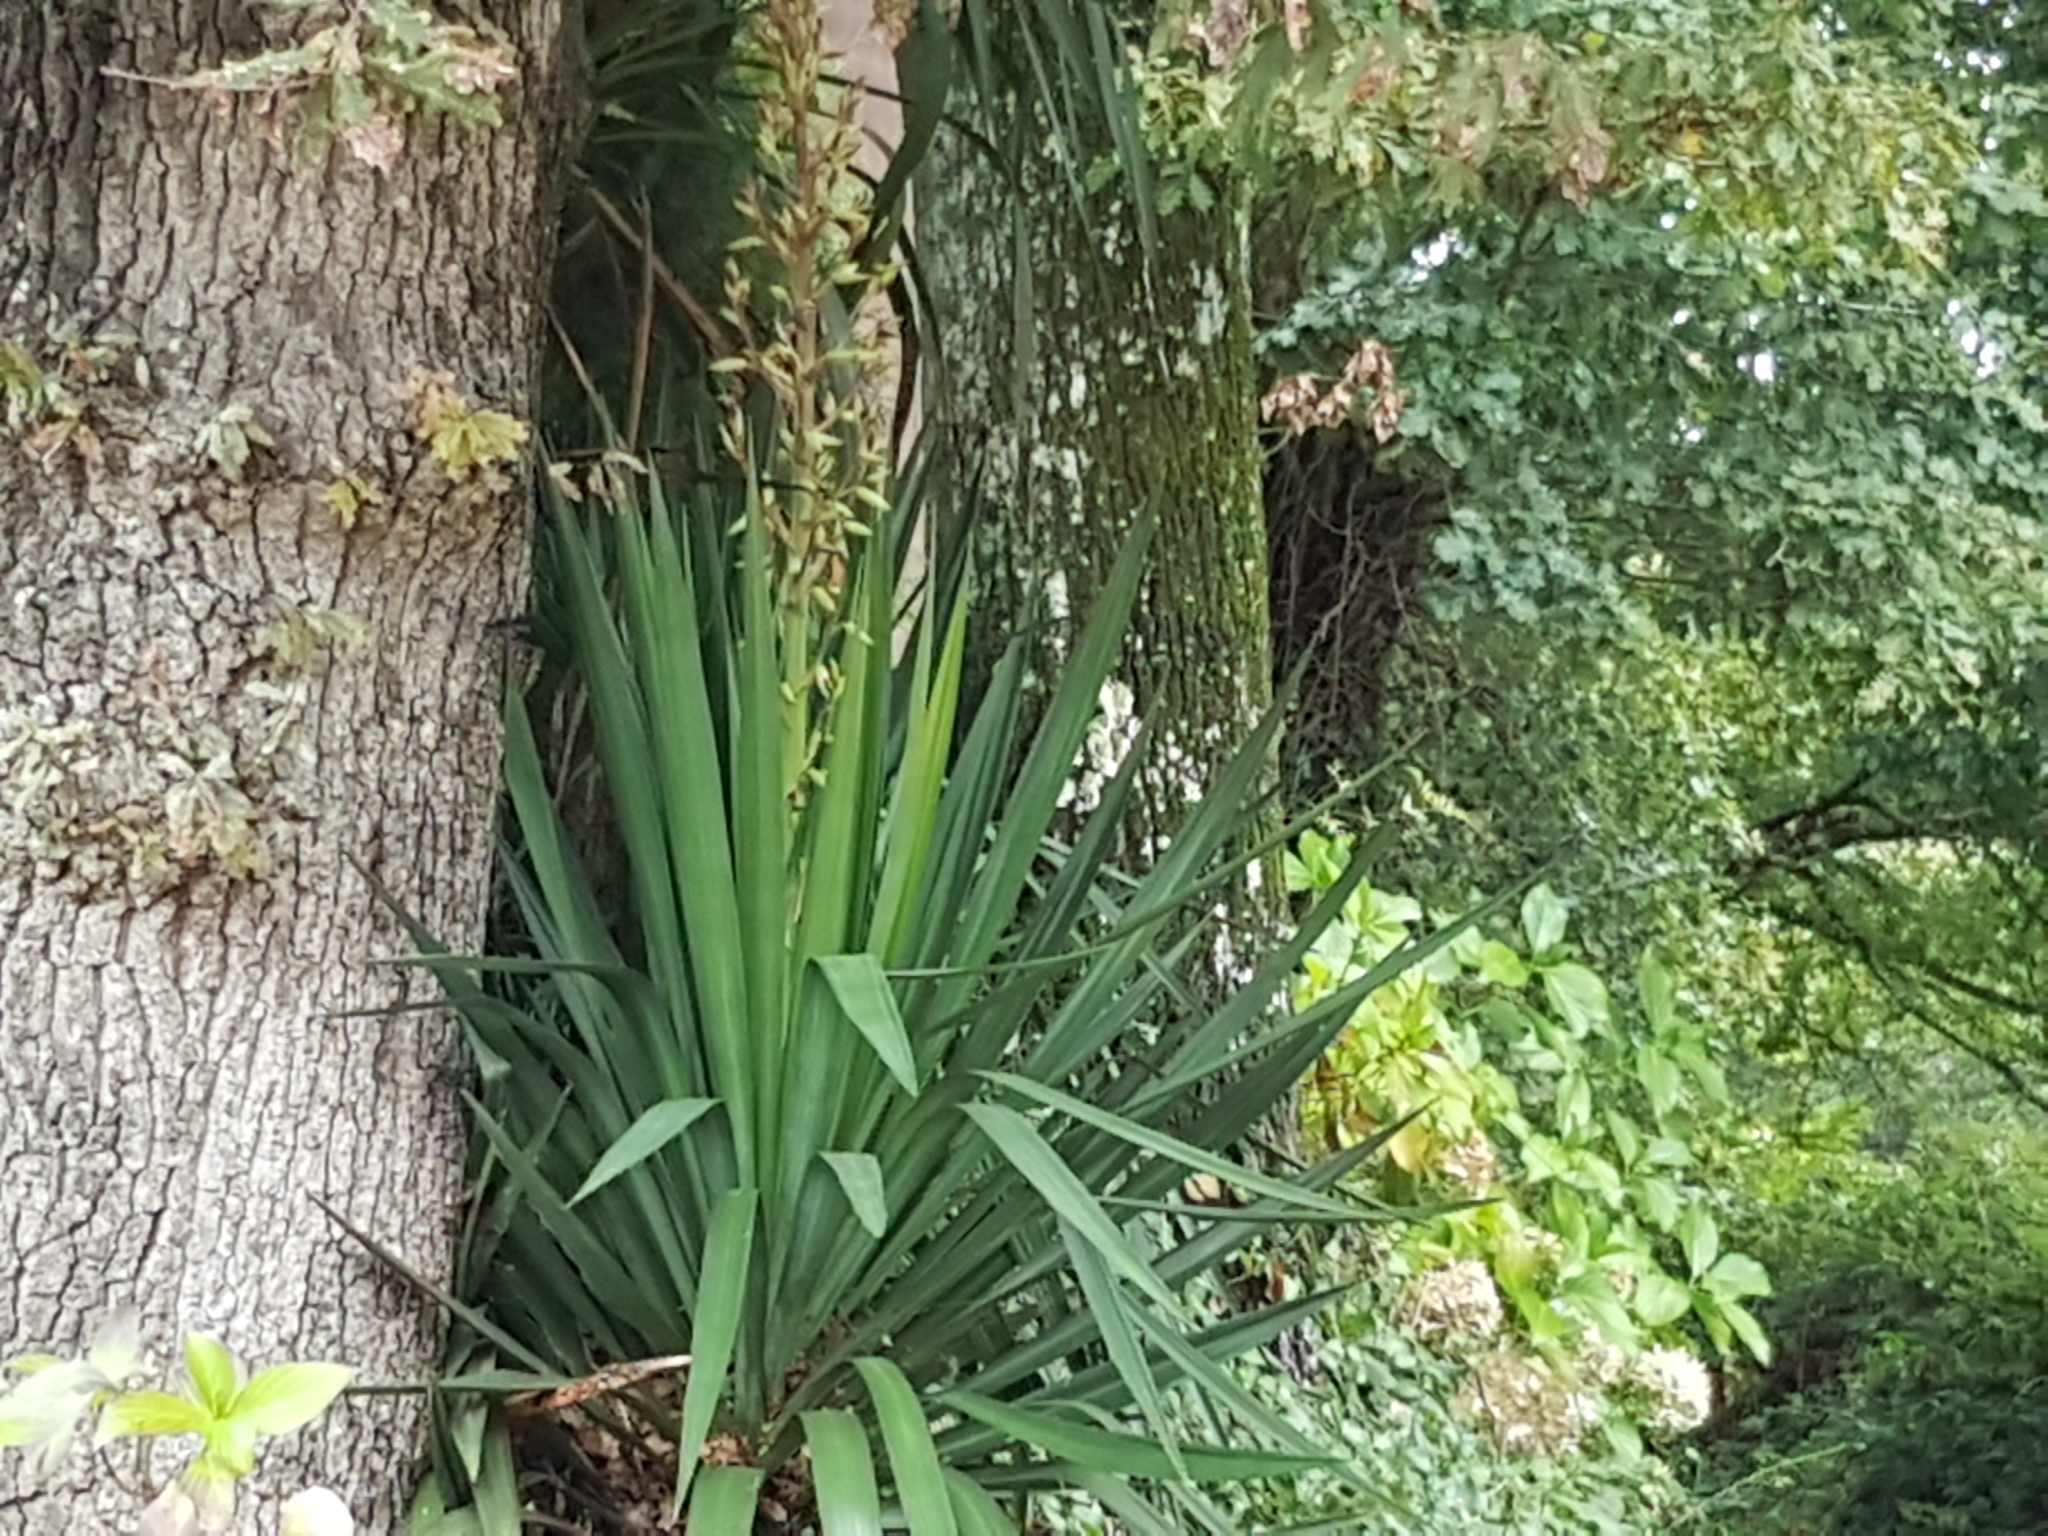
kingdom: Plantae
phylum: Tracheophyta
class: Liliopsida
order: Asparagales
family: Asparagaceae
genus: Yucca
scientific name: Yucca gloriosa
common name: Spanish-dagger
